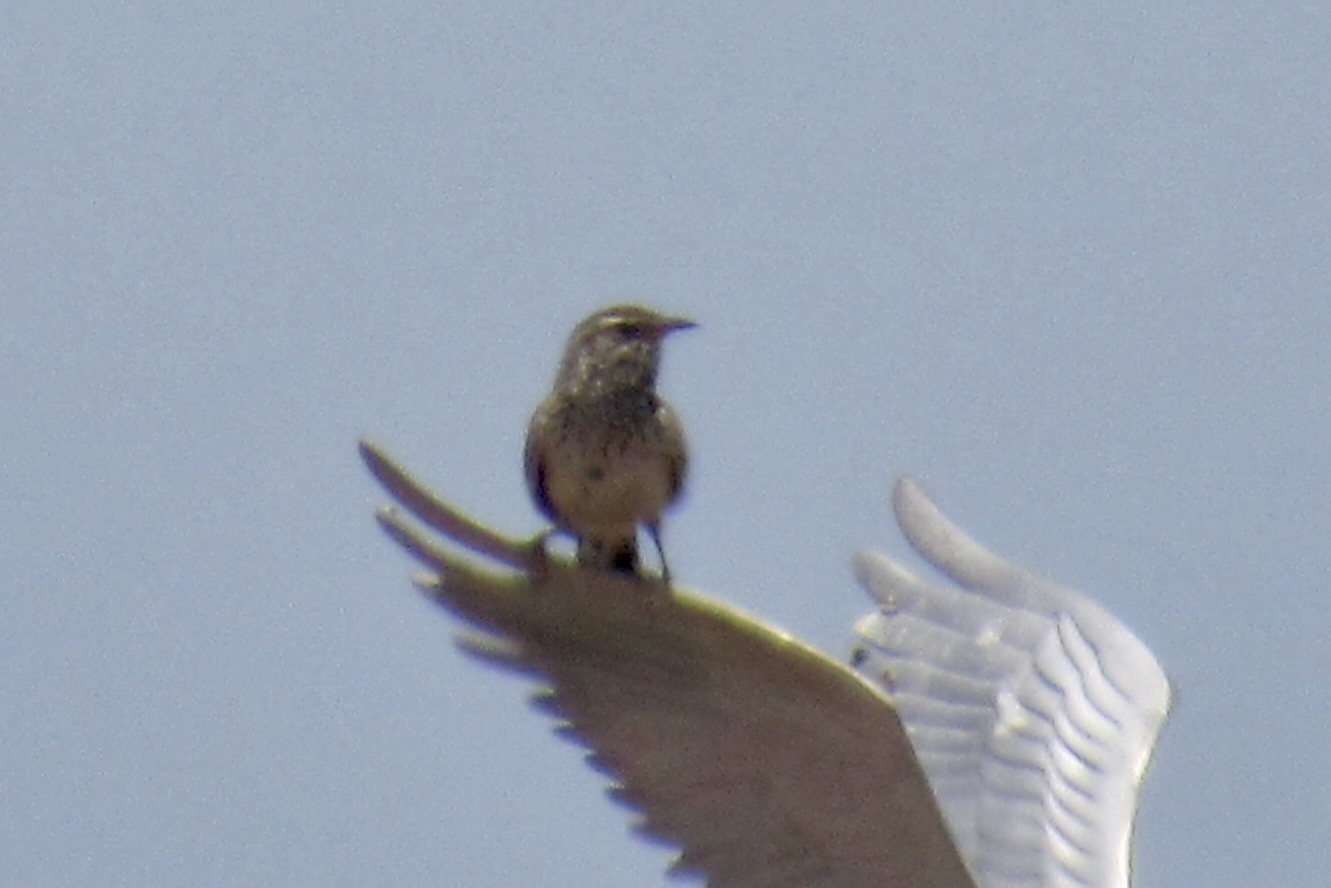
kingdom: Animalia
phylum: Chordata
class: Aves
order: Passeriformes
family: Troglodytidae
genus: Campylorhynchus
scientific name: Campylorhynchus brunneicapillus
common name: Cactus wren
